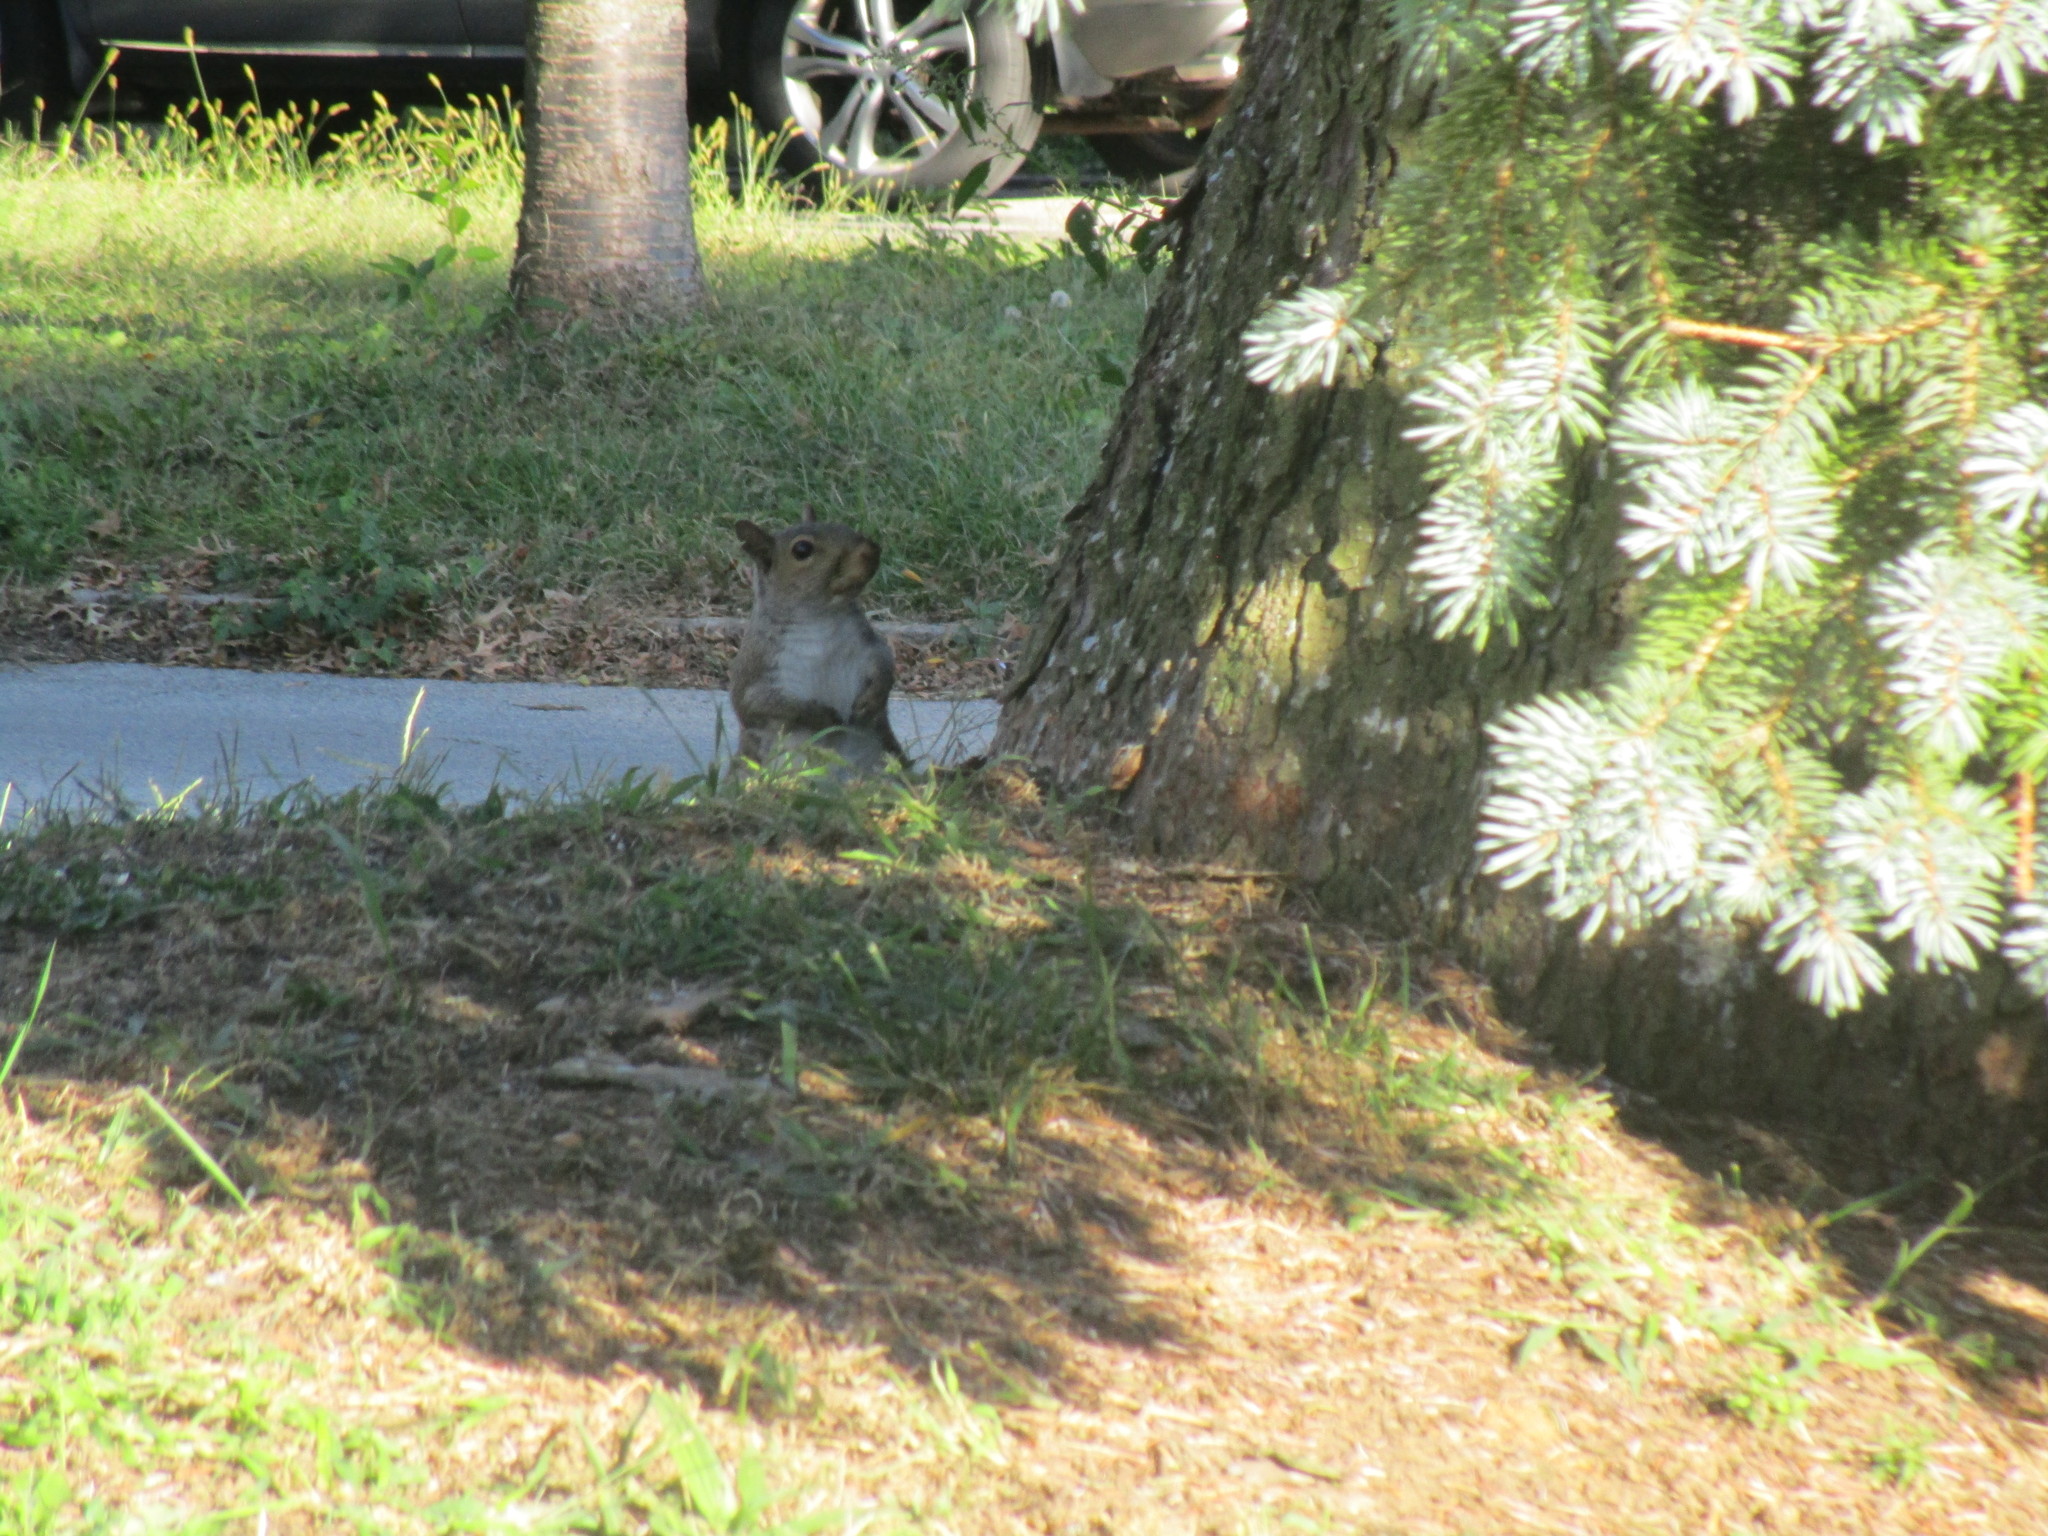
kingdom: Animalia
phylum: Chordata
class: Mammalia
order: Rodentia
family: Sciuridae
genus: Sciurus
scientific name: Sciurus carolinensis
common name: Eastern gray squirrel
